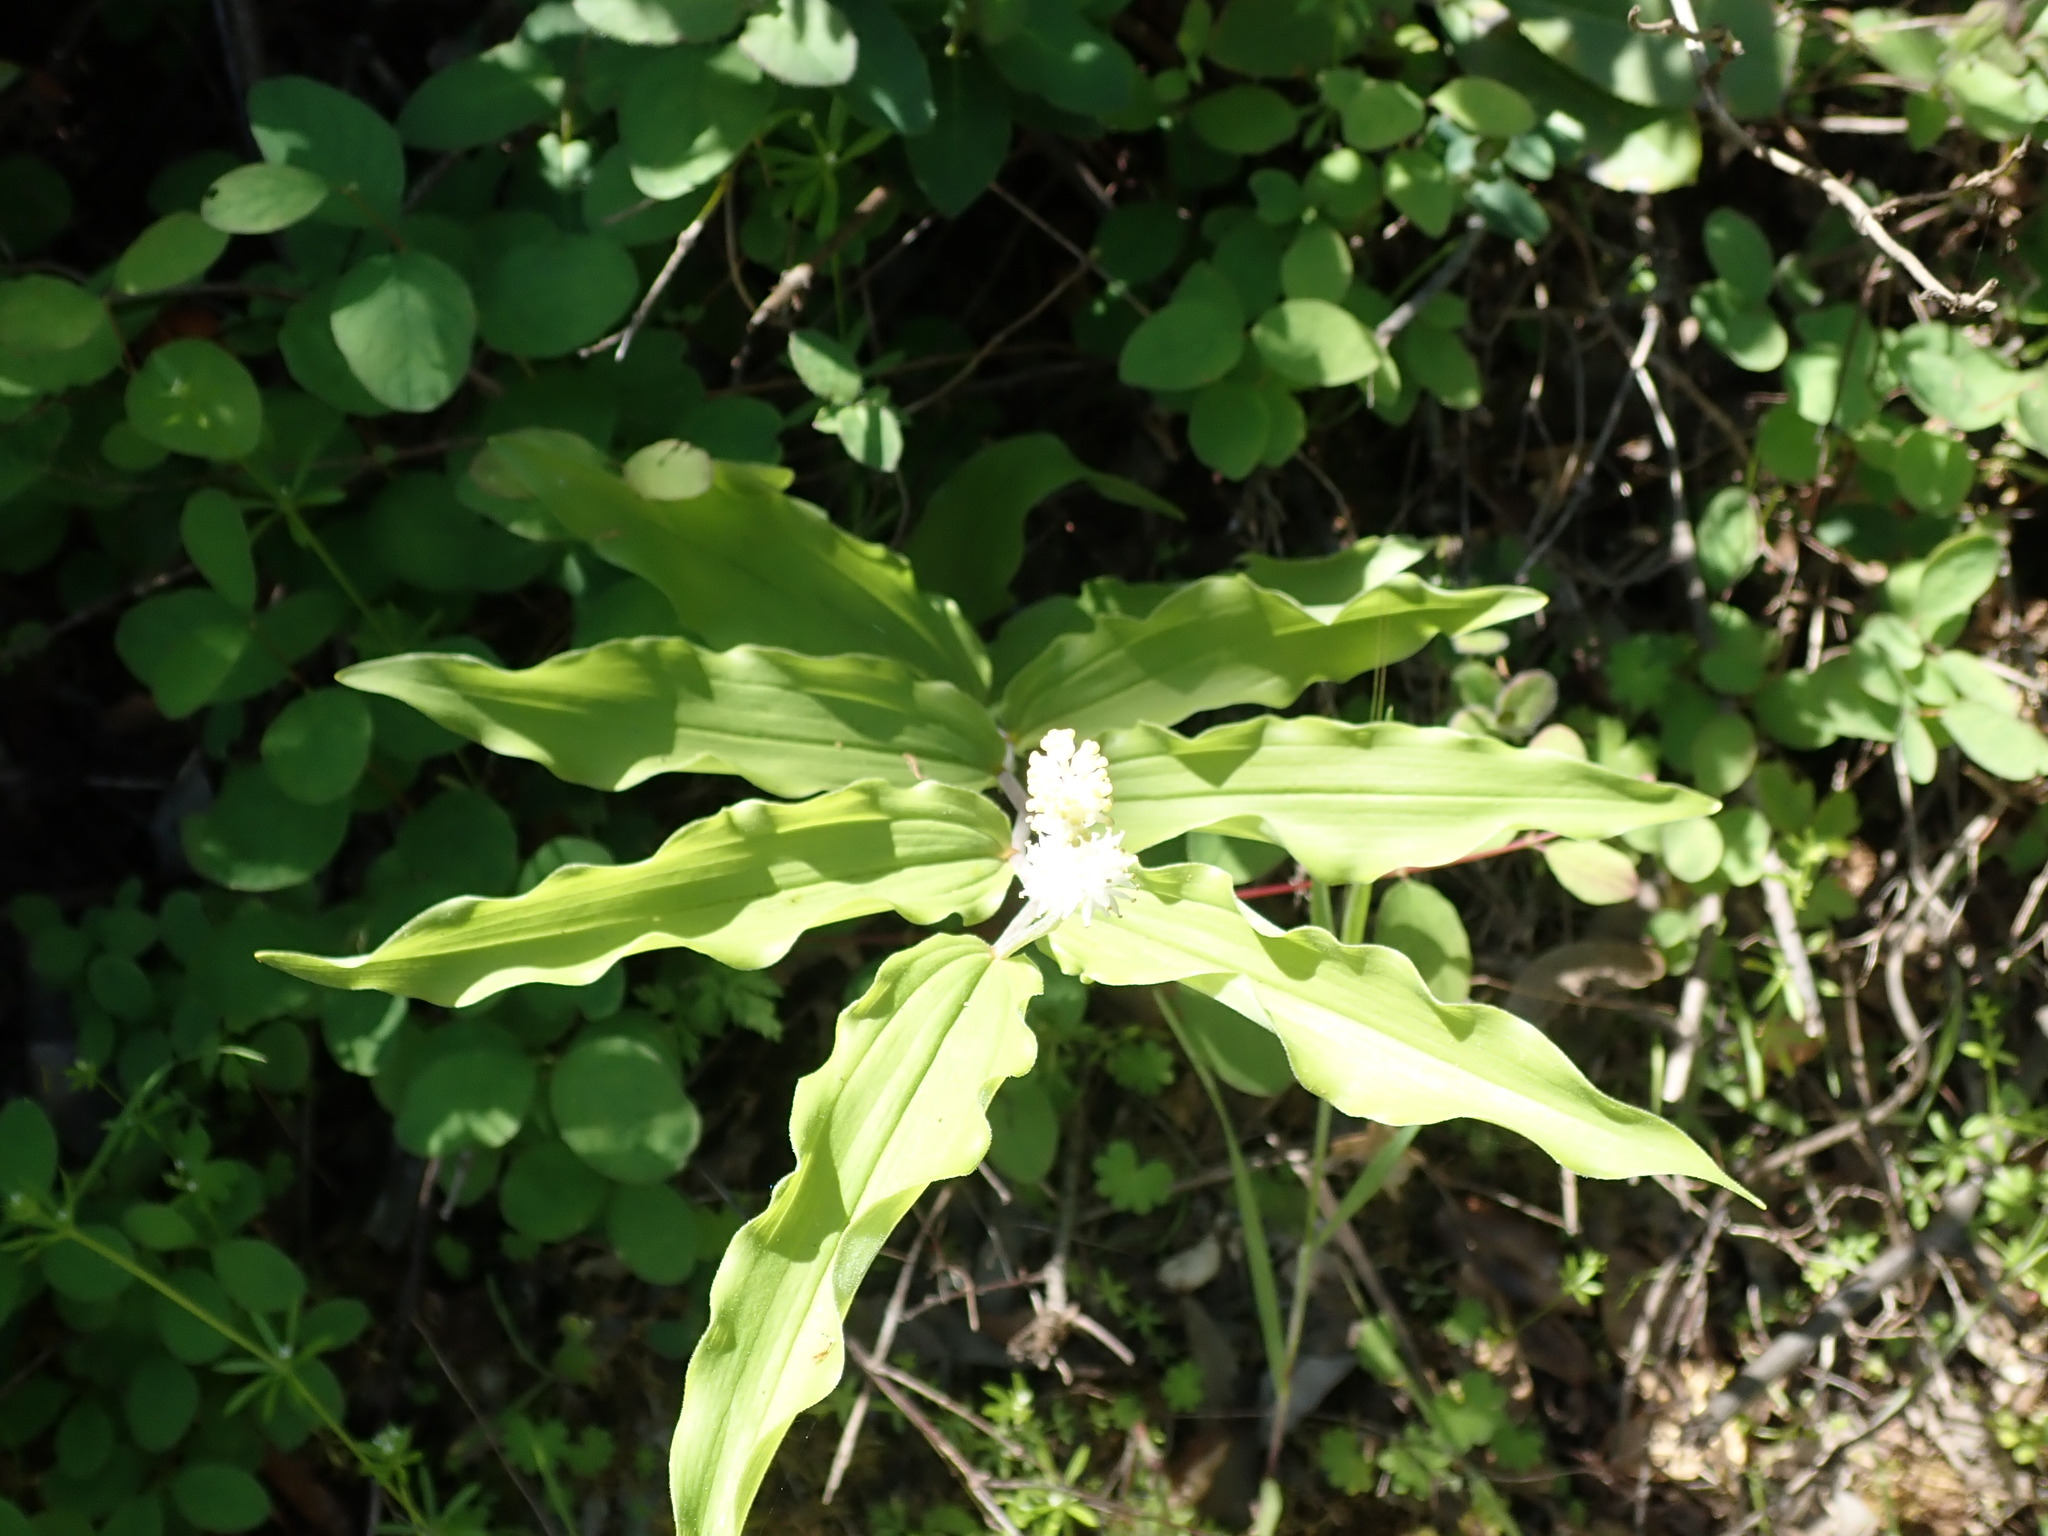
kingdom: Plantae
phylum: Tracheophyta
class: Liliopsida
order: Asparagales
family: Asparagaceae
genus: Maianthemum
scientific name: Maianthemum racemosum
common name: False spikenard
